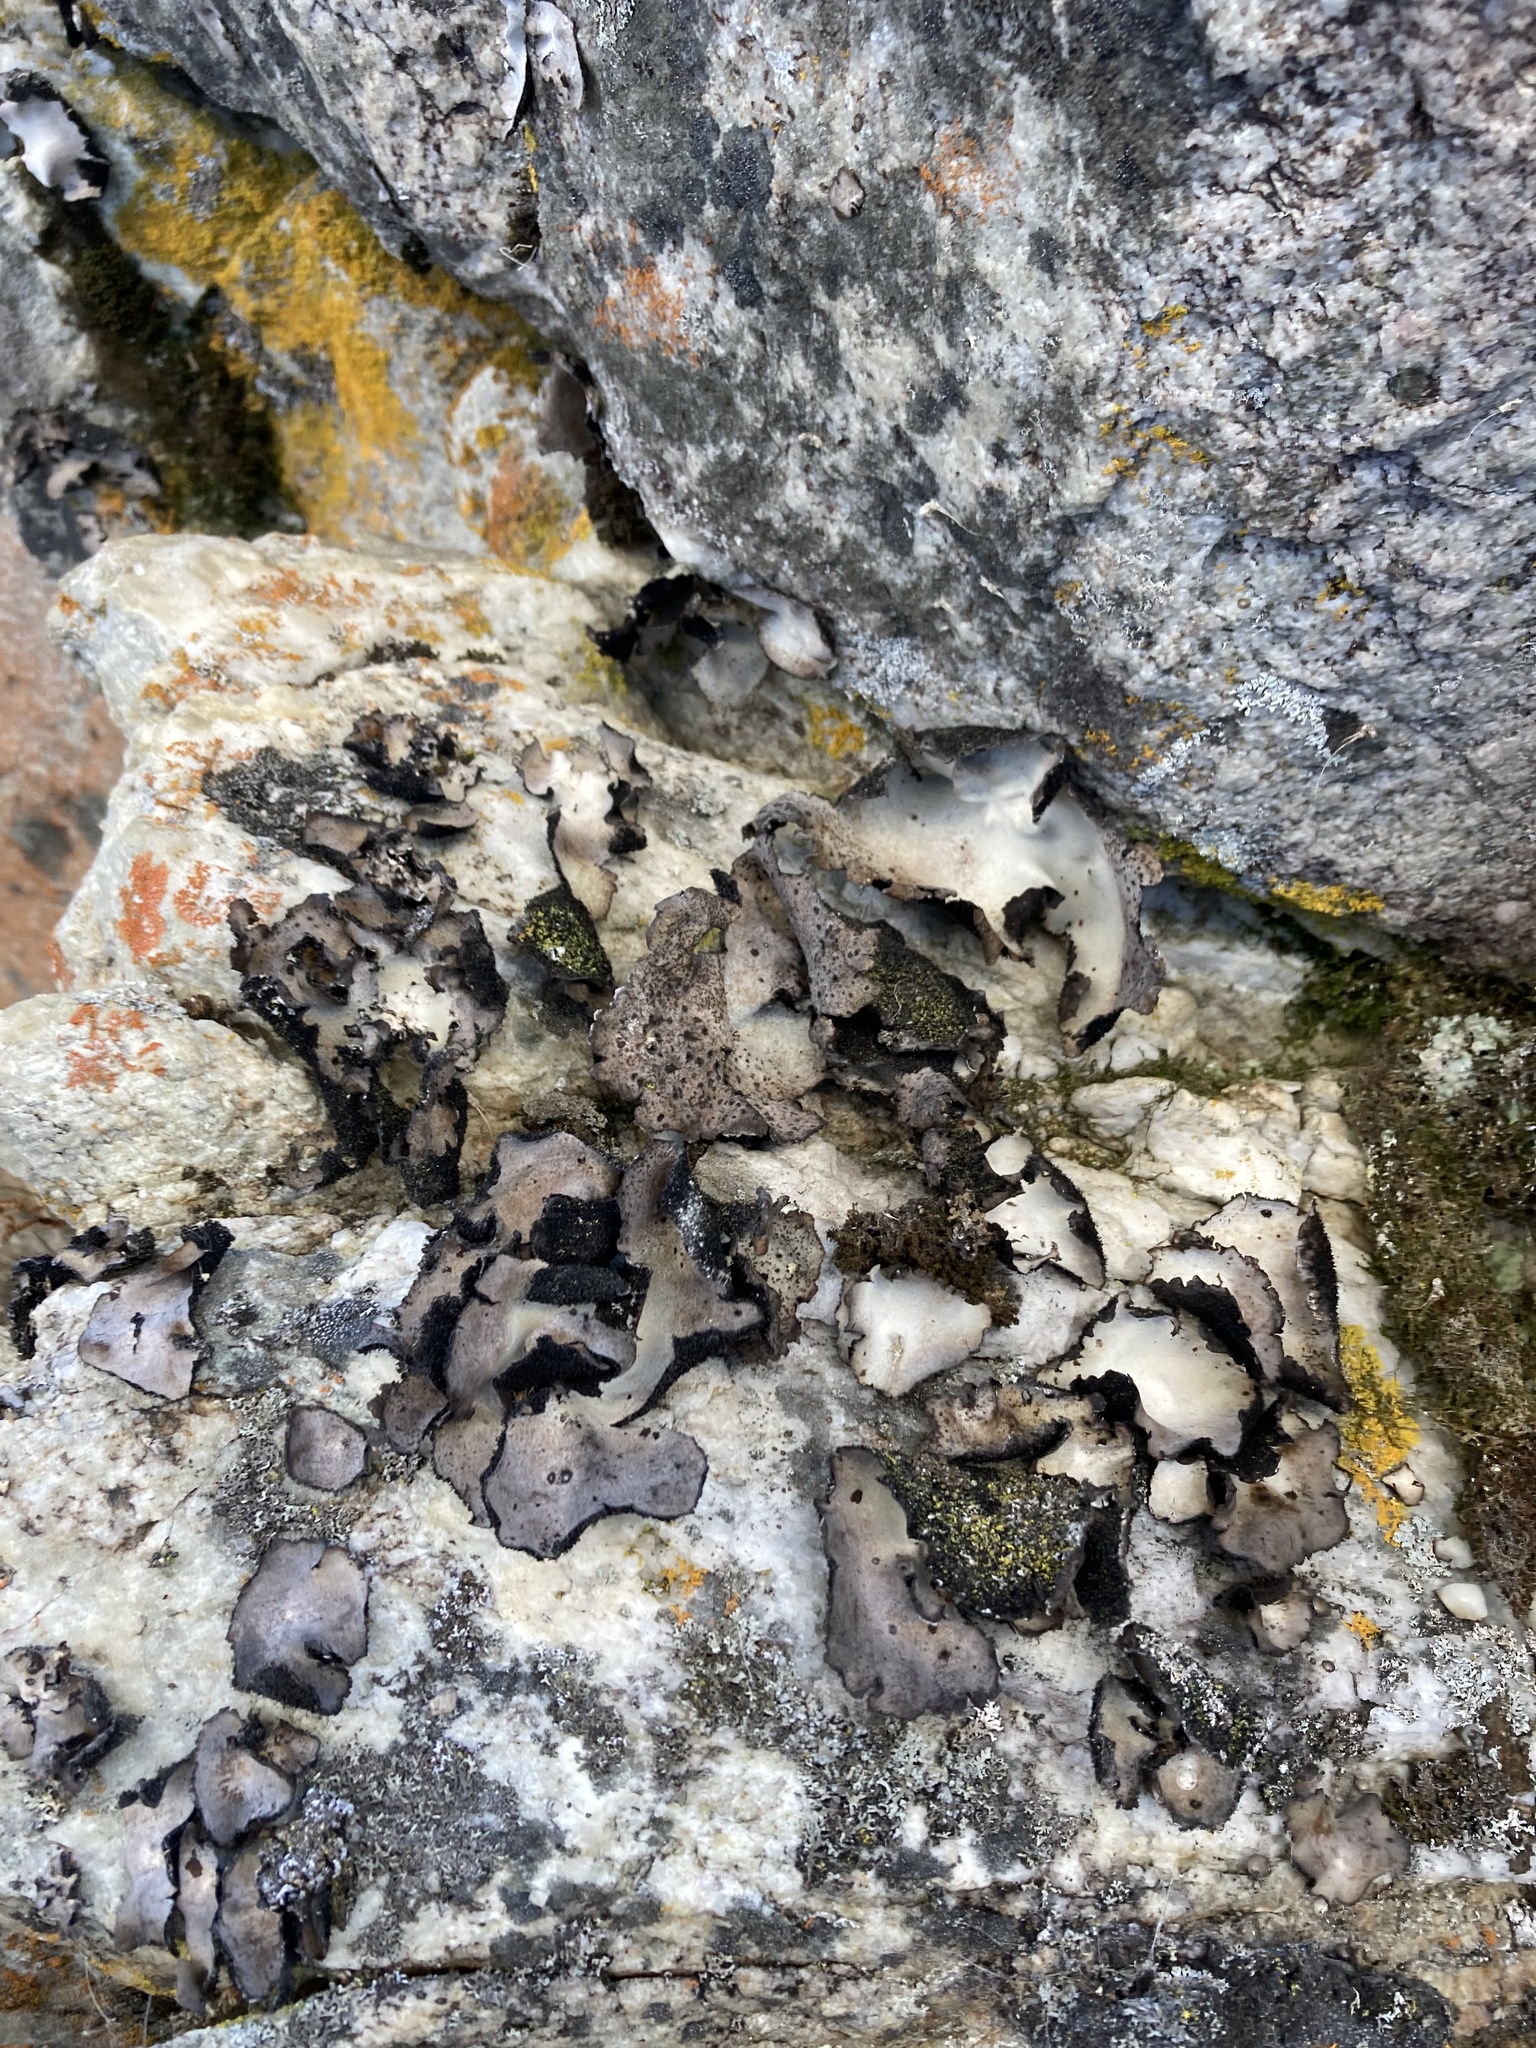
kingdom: Fungi
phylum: Ascomycota
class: Lecanoromycetes
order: Umbilicariales
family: Umbilicariaceae
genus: Umbilicaria
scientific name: Umbilicaria americana
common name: Frosted rock tripe
